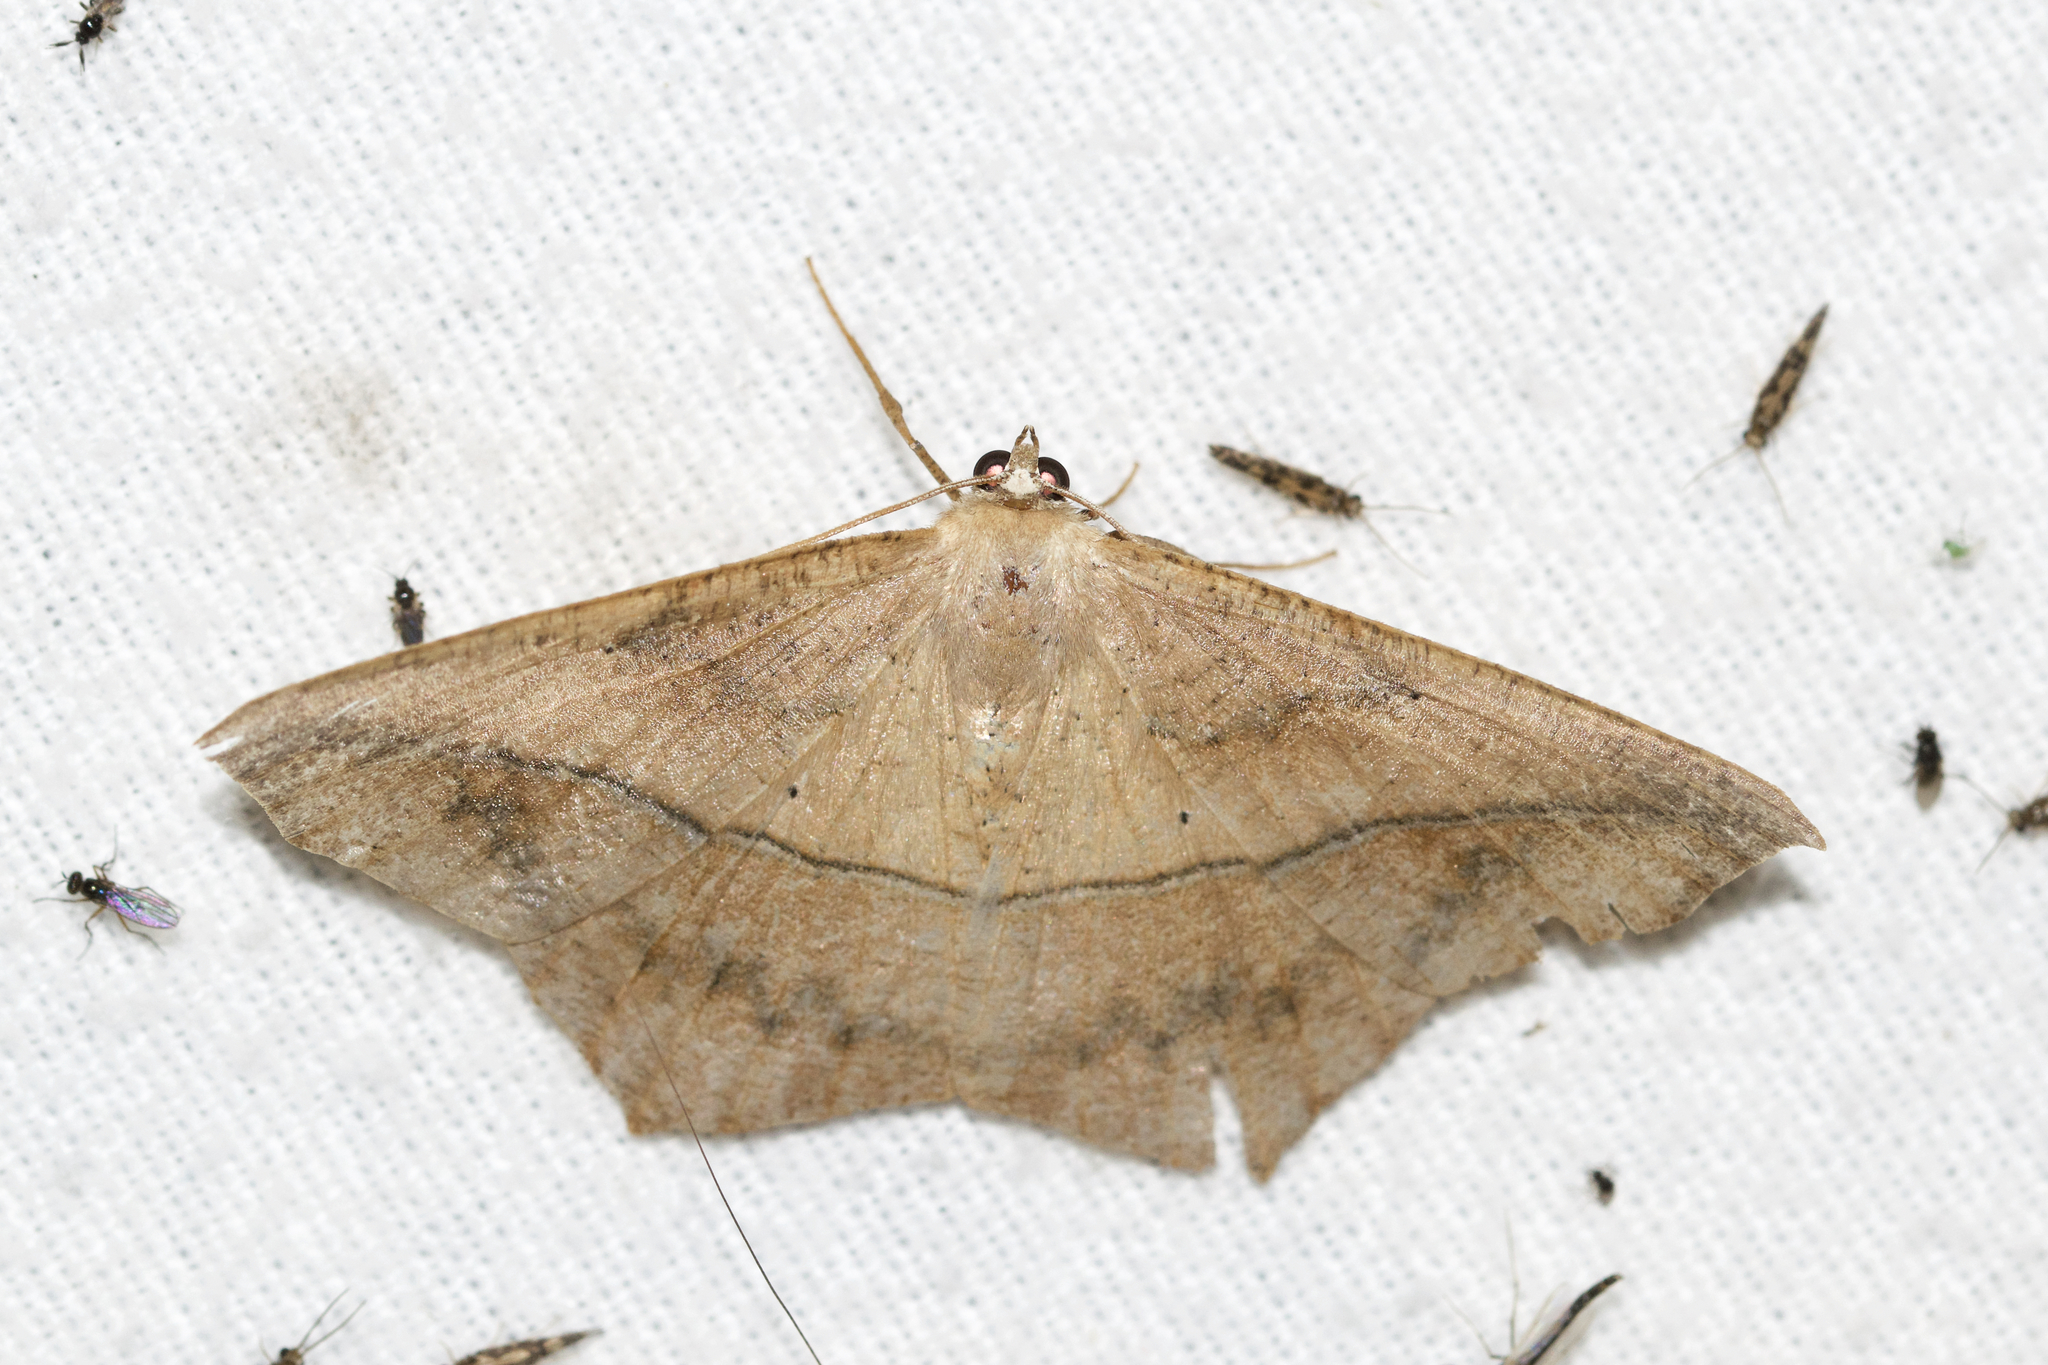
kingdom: Animalia
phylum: Arthropoda
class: Insecta
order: Lepidoptera
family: Geometridae
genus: Prochoerodes
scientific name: Prochoerodes lineola
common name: Large maple spanworm
